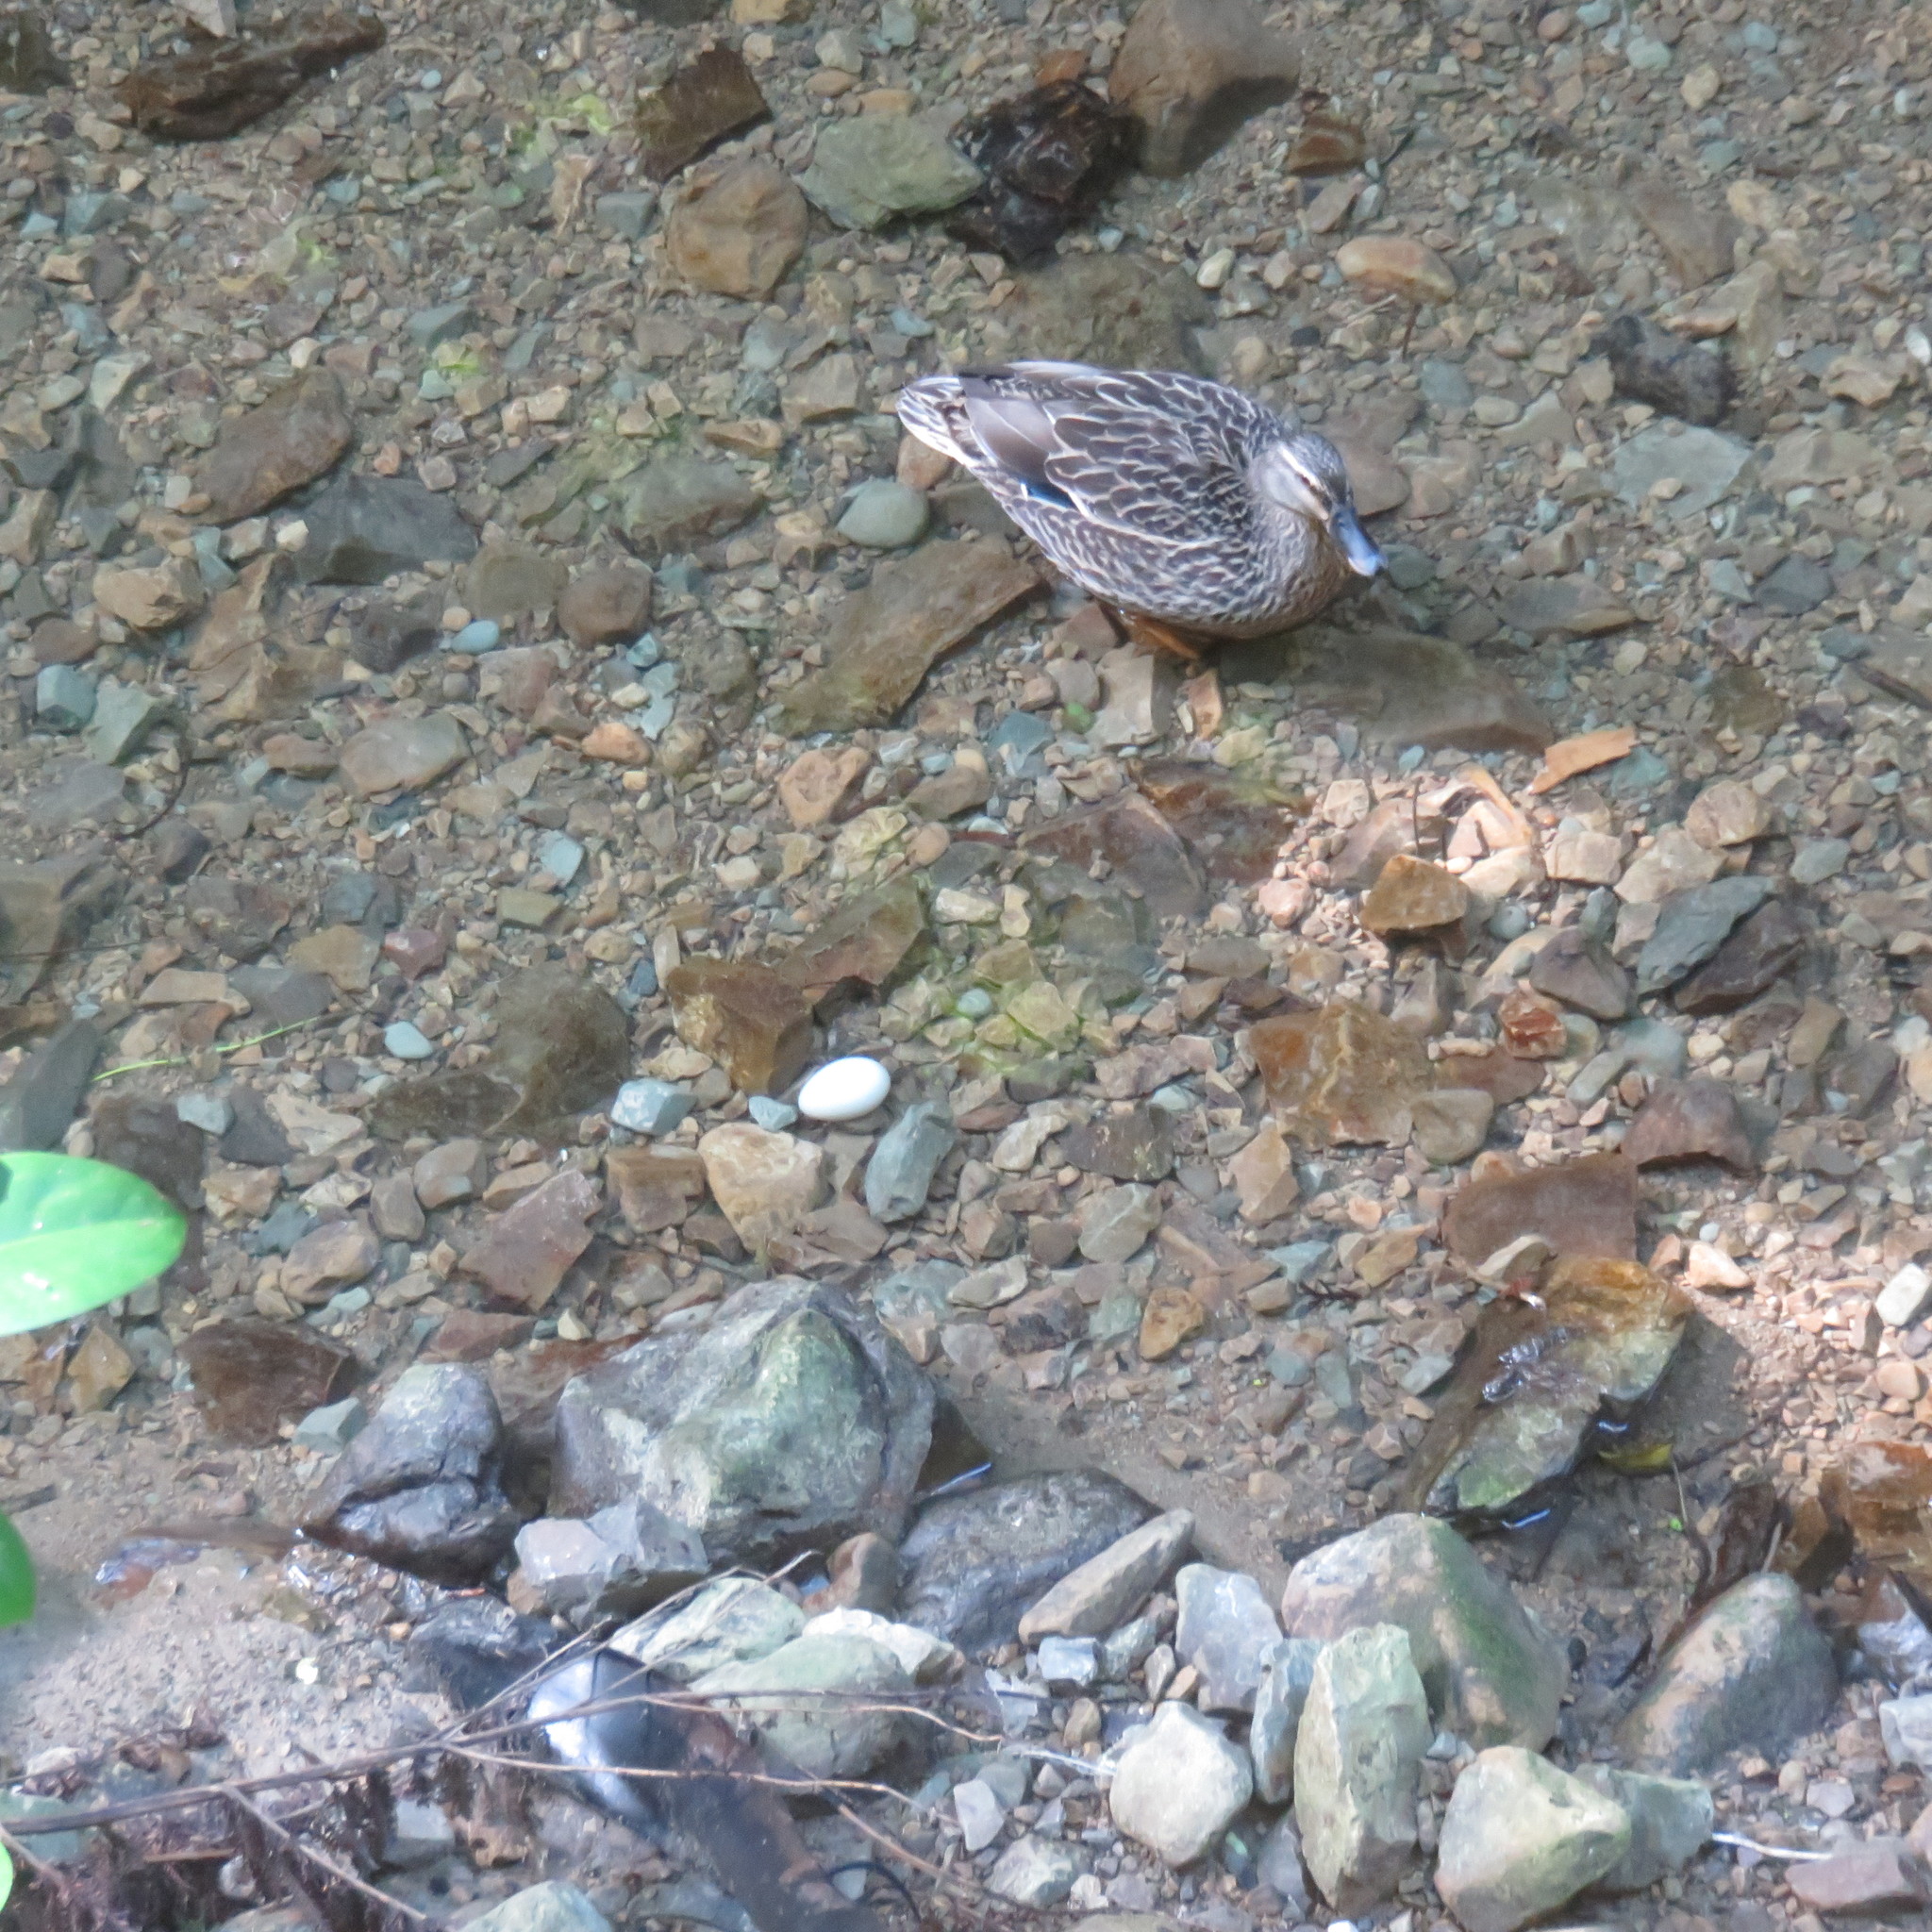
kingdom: Animalia
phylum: Chordata
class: Aves
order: Anseriformes
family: Anatidae
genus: Anas
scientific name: Anas
